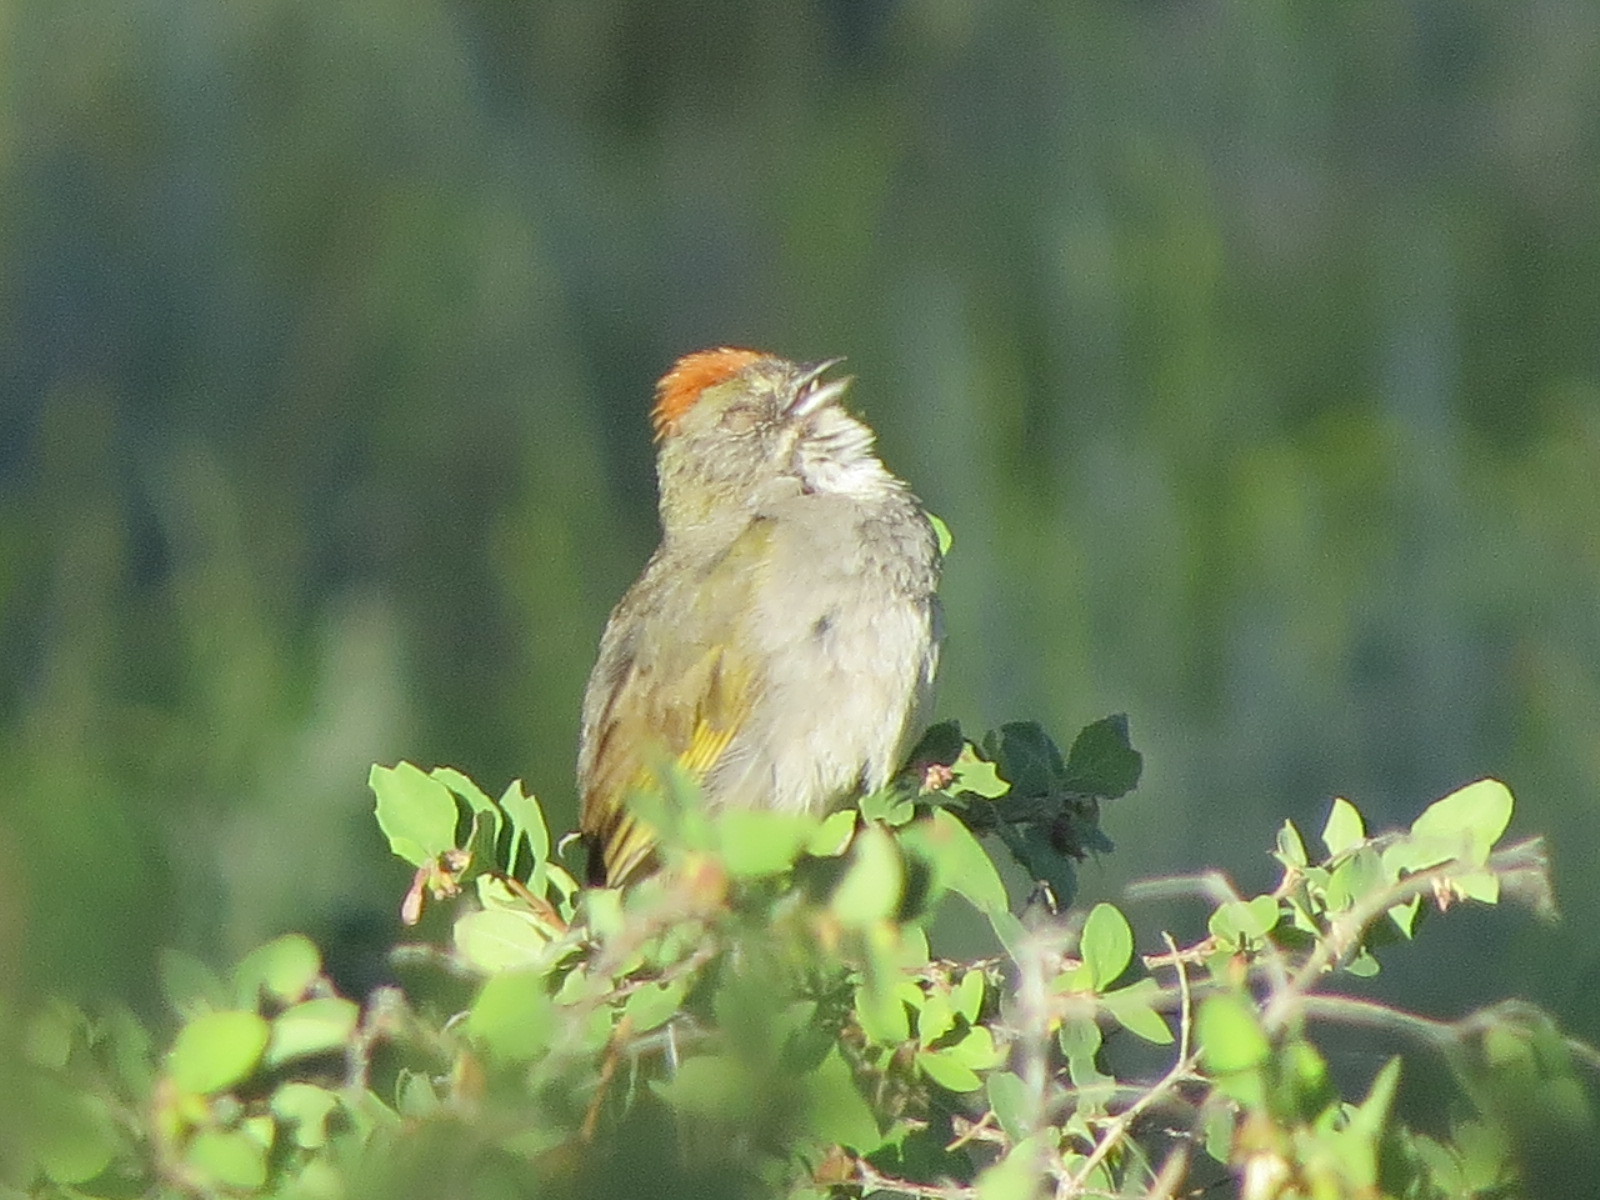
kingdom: Animalia
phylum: Chordata
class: Aves
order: Passeriformes
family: Passerellidae
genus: Pipilo
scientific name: Pipilo chlorurus
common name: Green-tailed towhee
